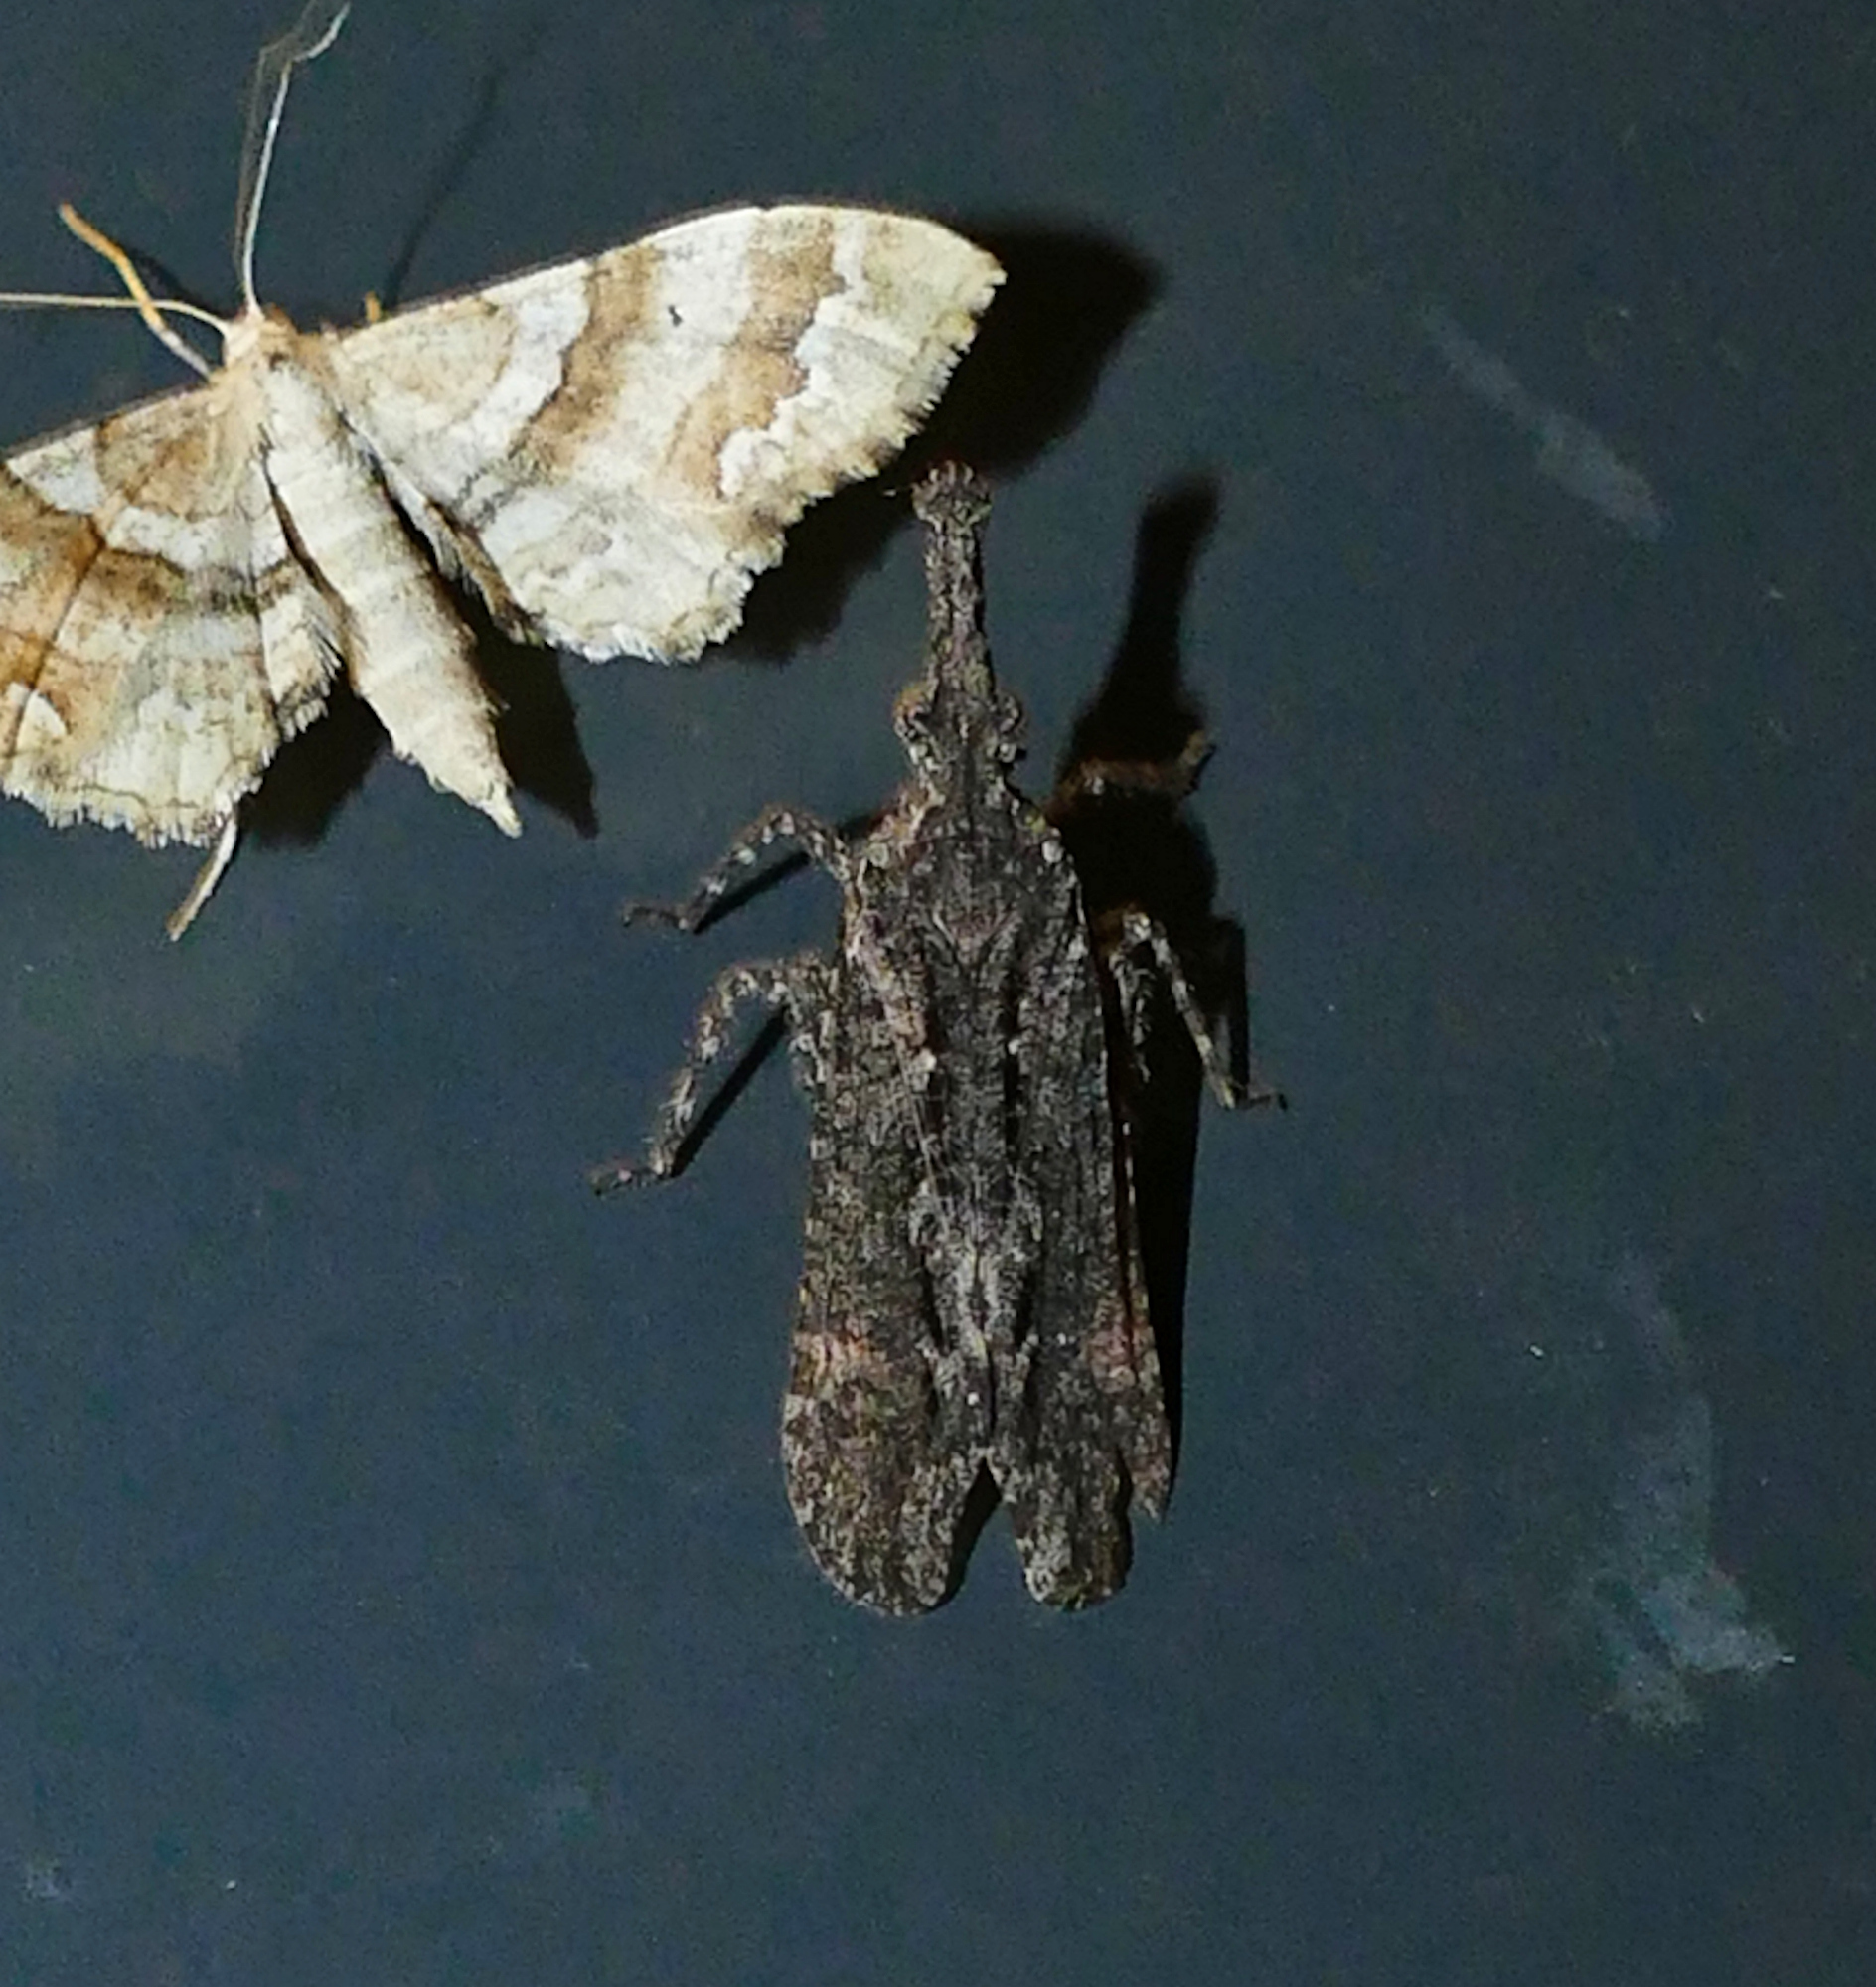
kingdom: Animalia
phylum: Arthropoda
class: Insecta
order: Hemiptera
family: Fulgoridae
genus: Scolopsella
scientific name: Scolopsella reticulata
